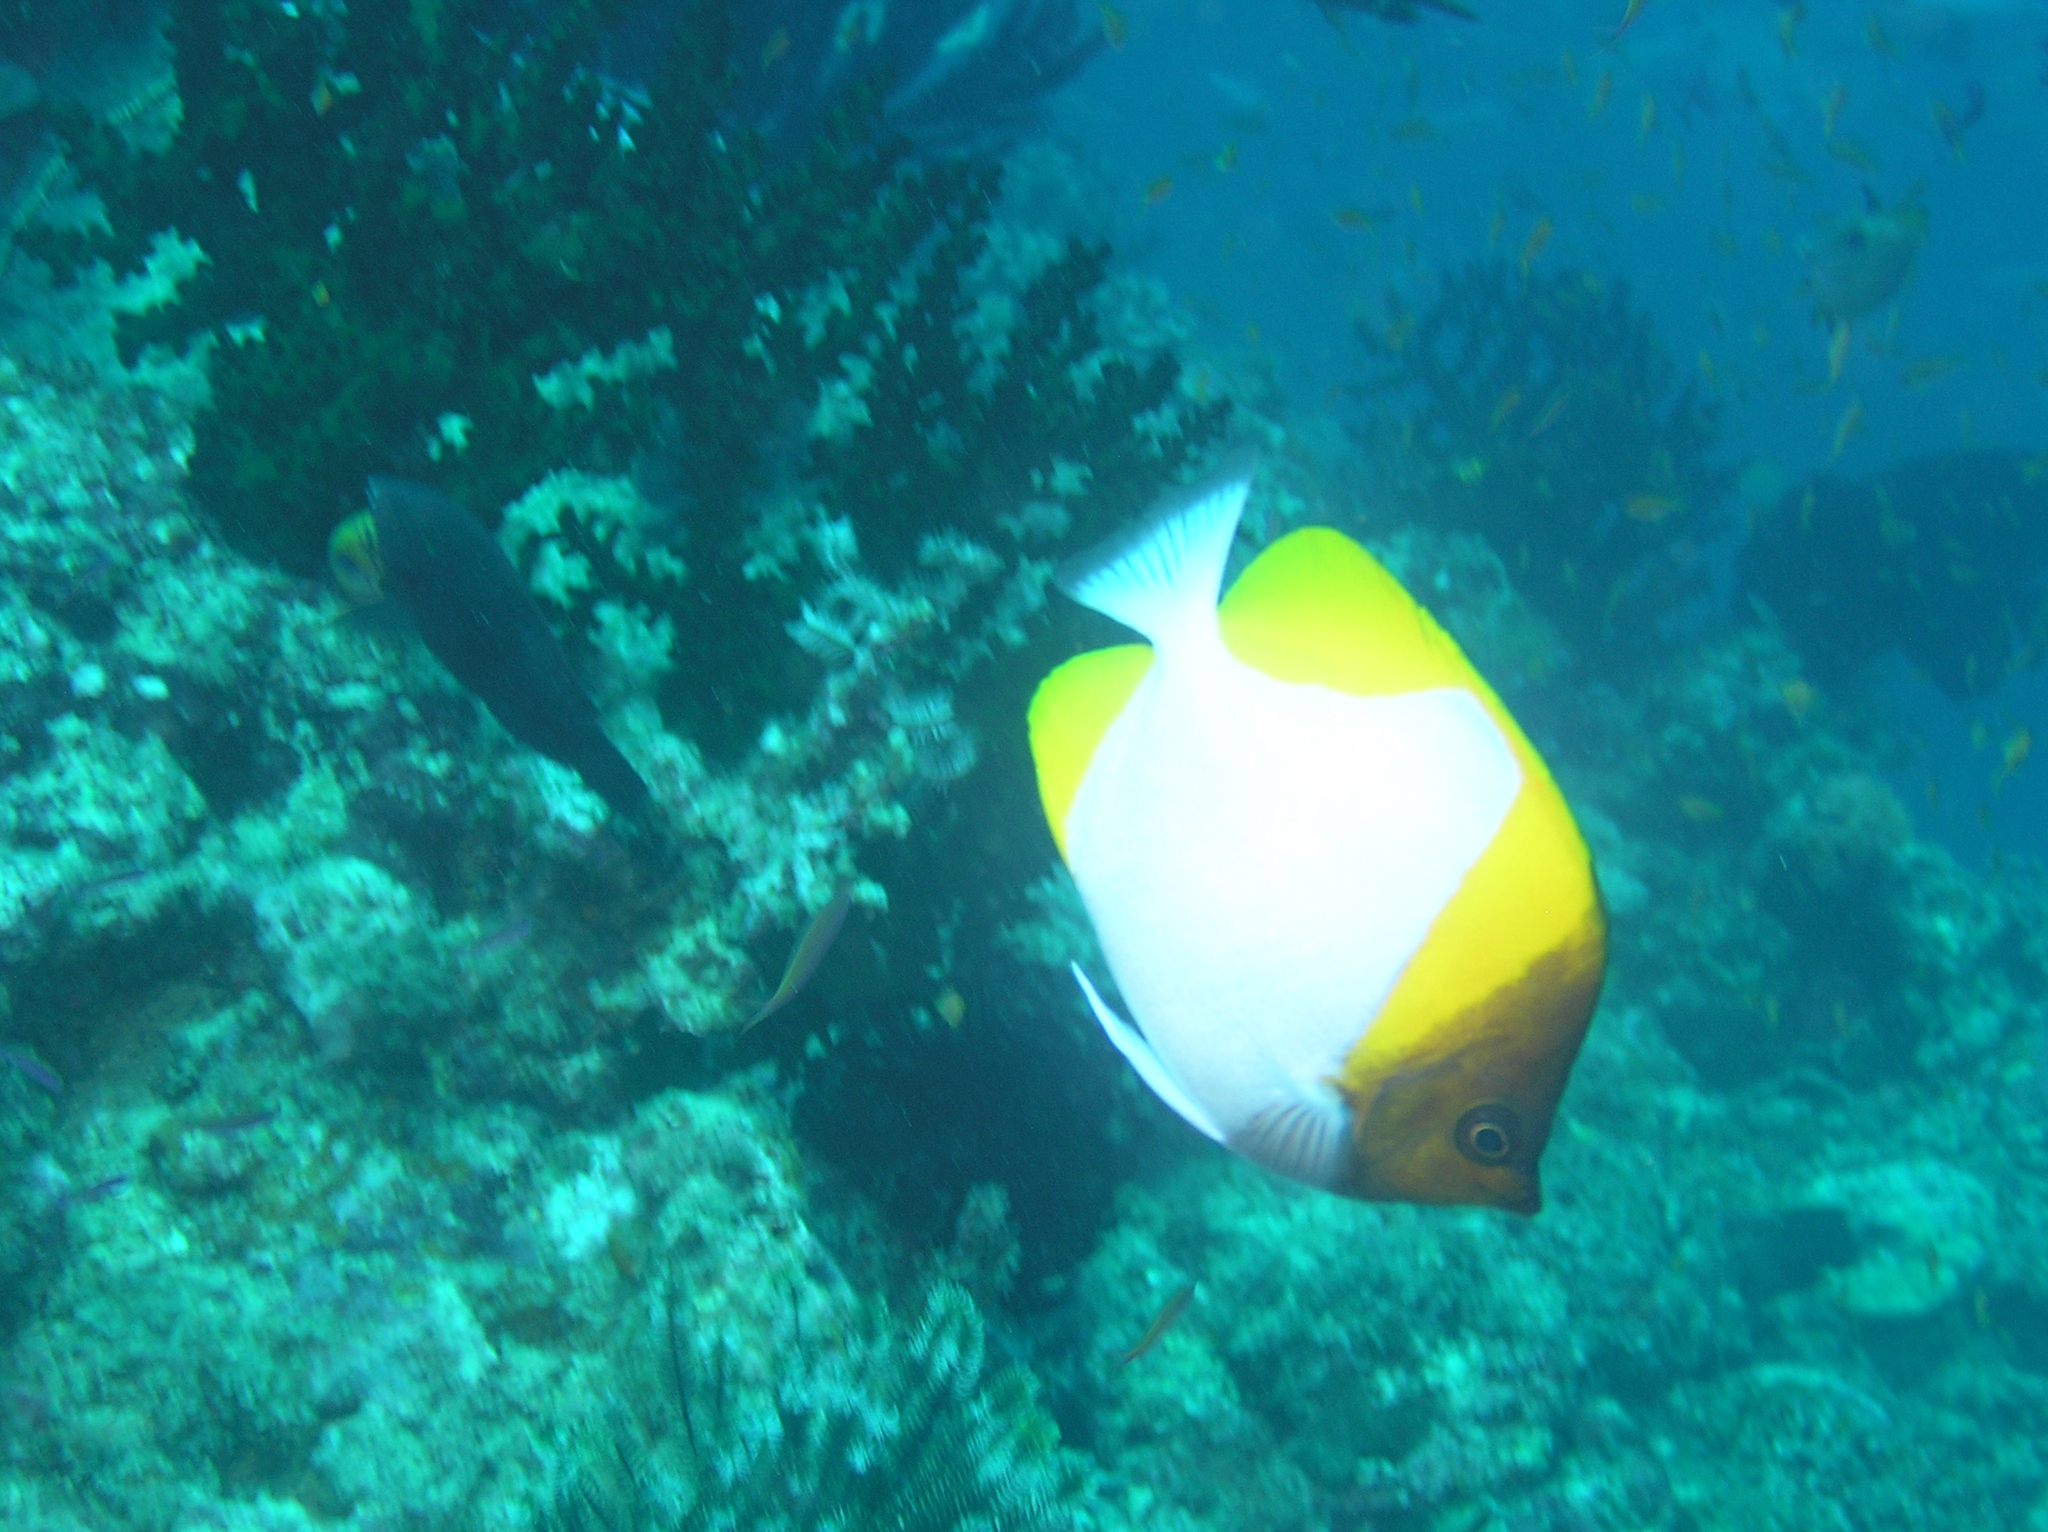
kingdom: Animalia
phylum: Chordata
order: Perciformes
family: Chaetodontidae
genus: Hemitaurichthys
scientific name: Hemitaurichthys polylepis
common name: Brushytoothed butterflyfish
